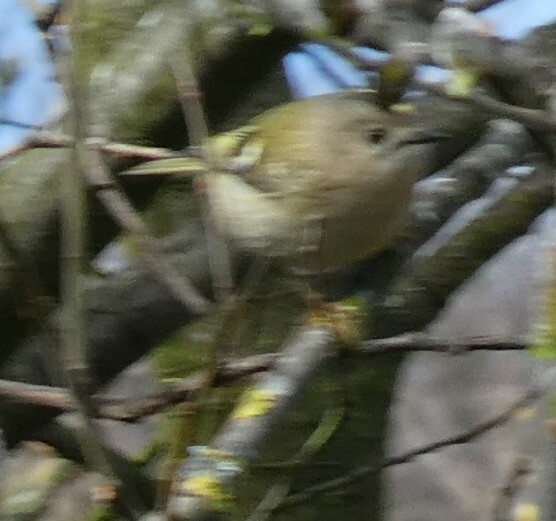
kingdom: Animalia
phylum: Chordata
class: Aves
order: Passeriformes
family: Regulidae
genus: Regulus
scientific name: Regulus regulus
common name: Goldcrest
